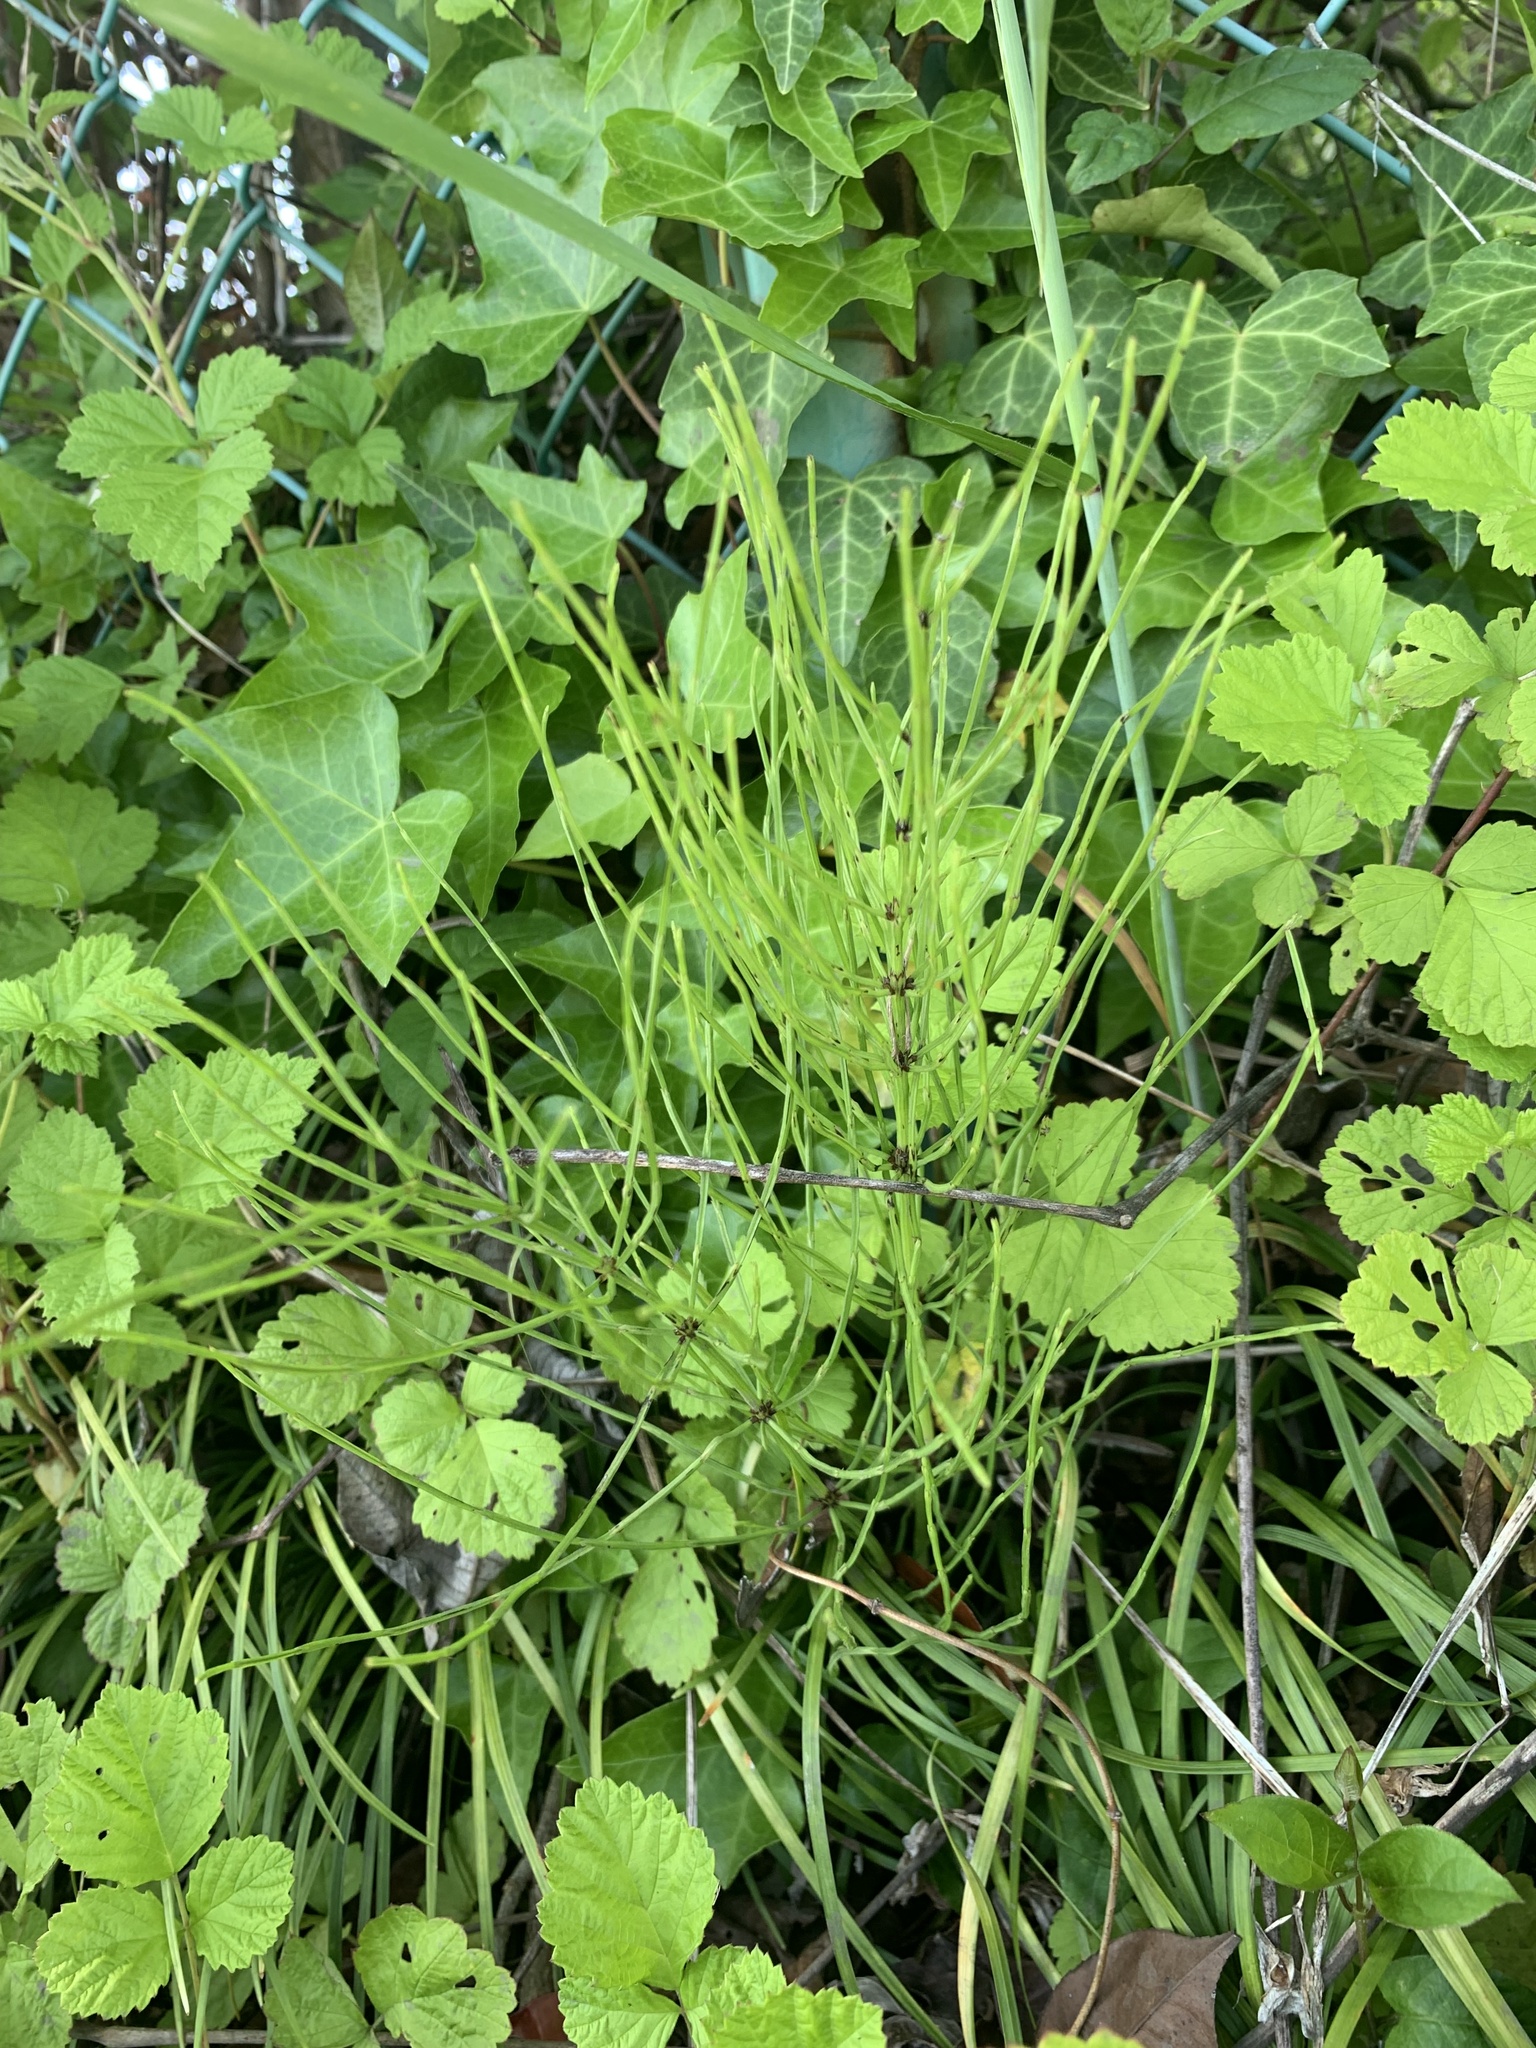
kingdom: Plantae
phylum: Tracheophyta
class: Polypodiopsida
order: Equisetales
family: Equisetaceae
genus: Equisetum
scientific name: Equisetum arvense
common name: Field horsetail
